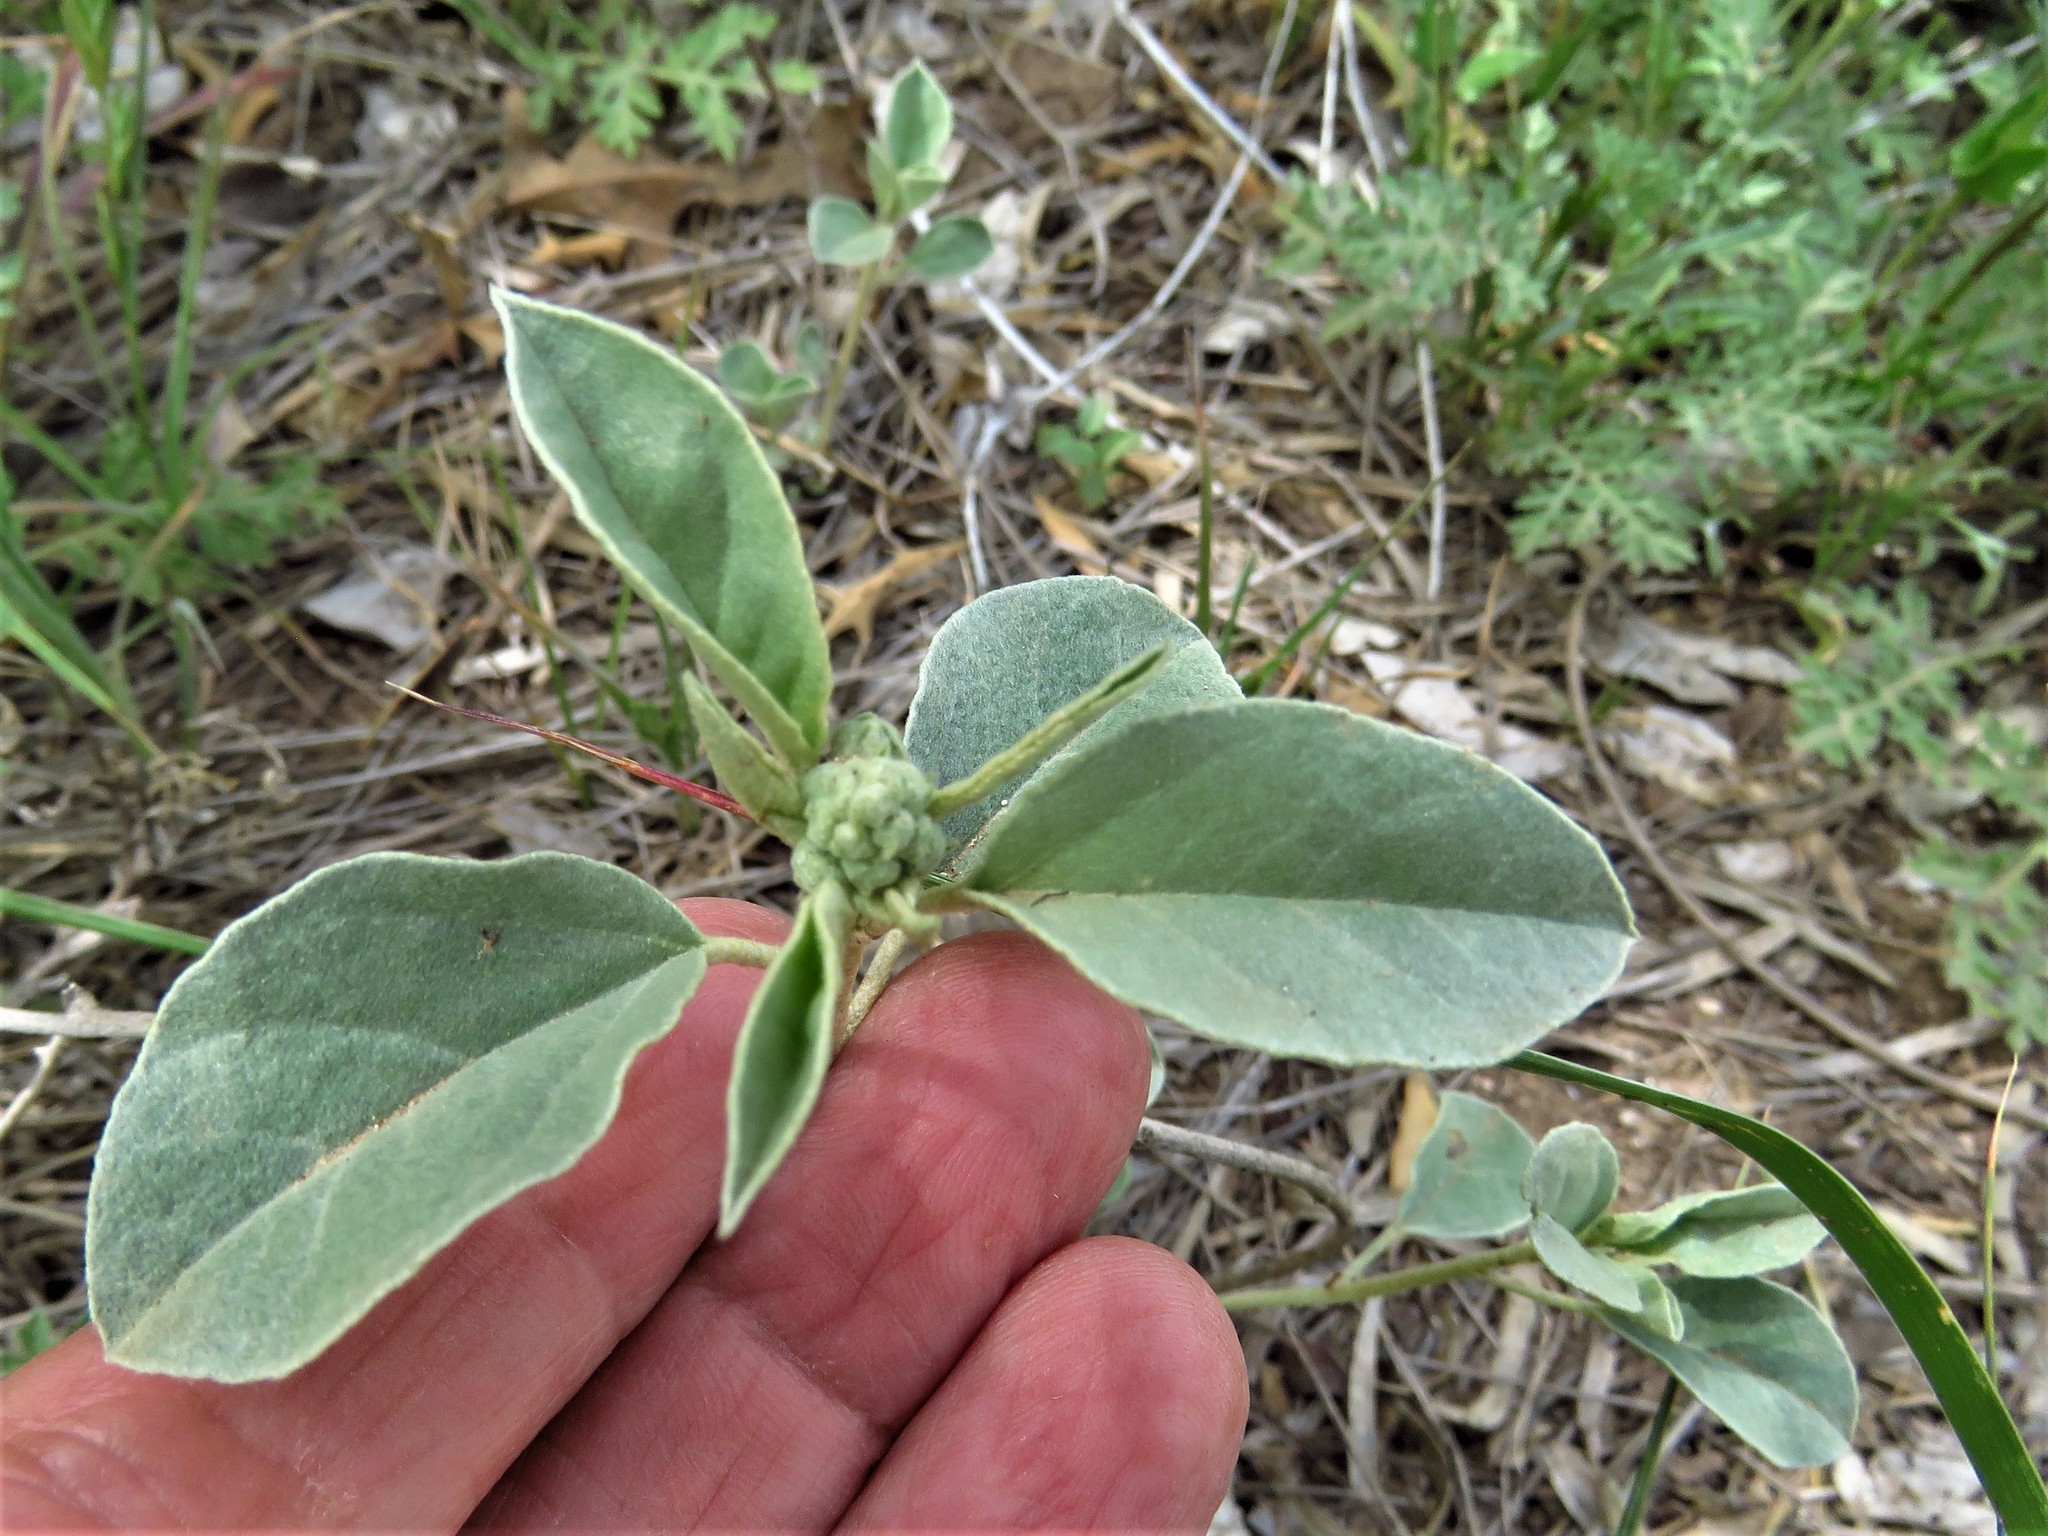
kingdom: Plantae
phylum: Tracheophyta
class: Magnoliopsida
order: Malpighiales
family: Euphorbiaceae
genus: Croton
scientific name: Croton pottsii
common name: Leatherweed
